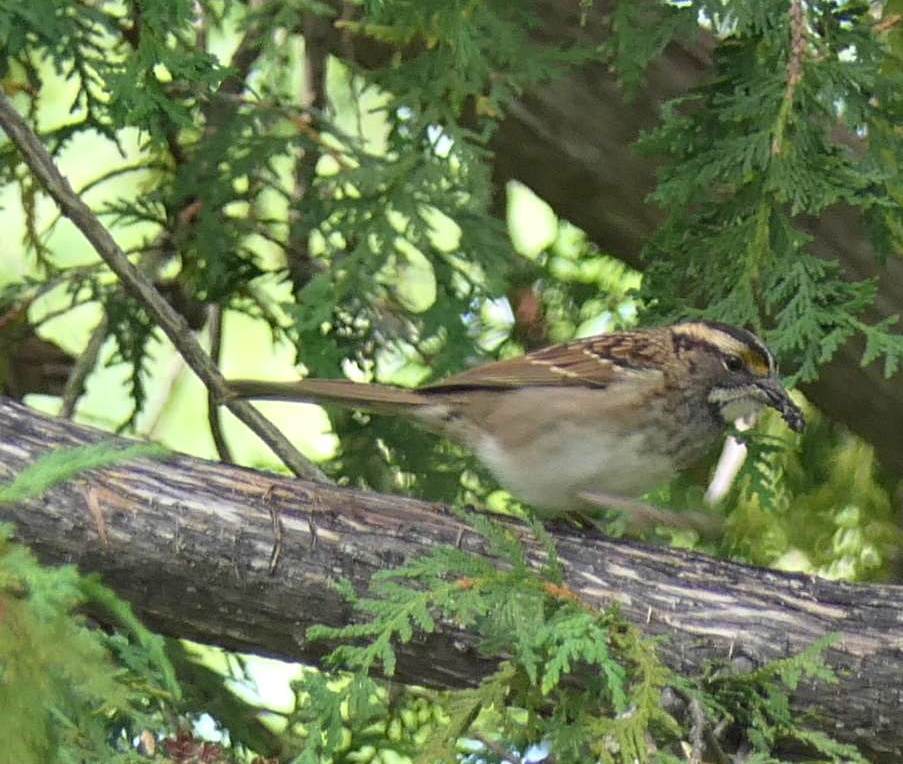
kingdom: Animalia
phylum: Chordata
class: Aves
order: Passeriformes
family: Passerellidae
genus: Zonotrichia
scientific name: Zonotrichia albicollis
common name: White-throated sparrow
